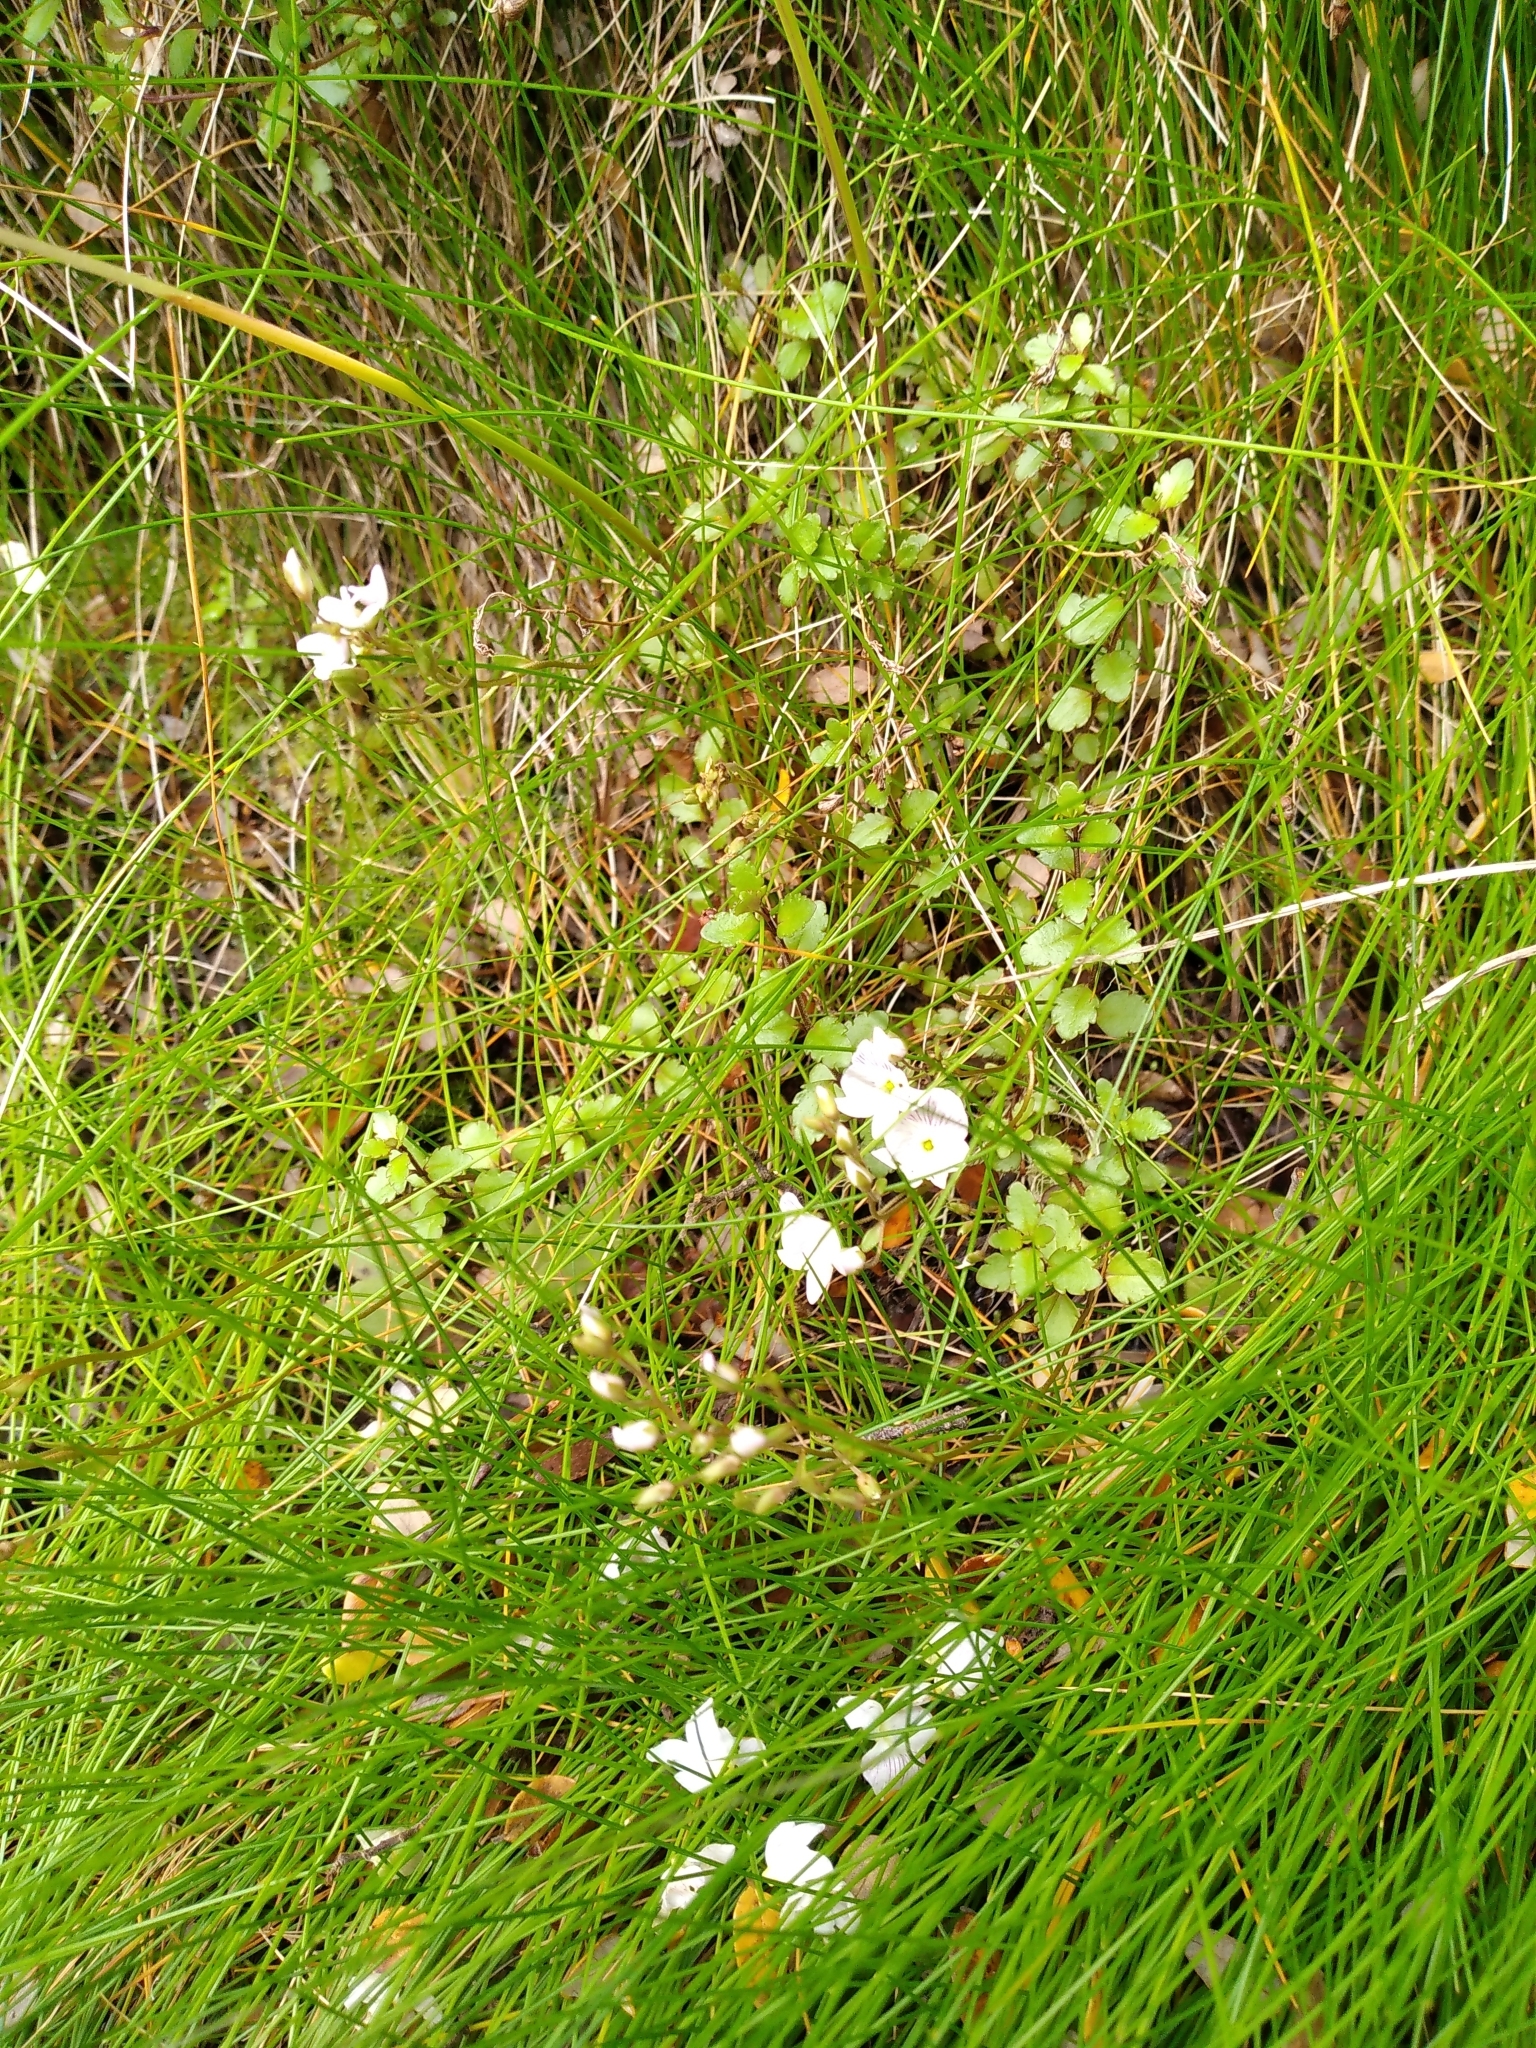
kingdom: Plantae
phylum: Tracheophyta
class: Magnoliopsida
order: Lamiales
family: Plantaginaceae
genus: Veronica
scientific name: Veronica lyallii
